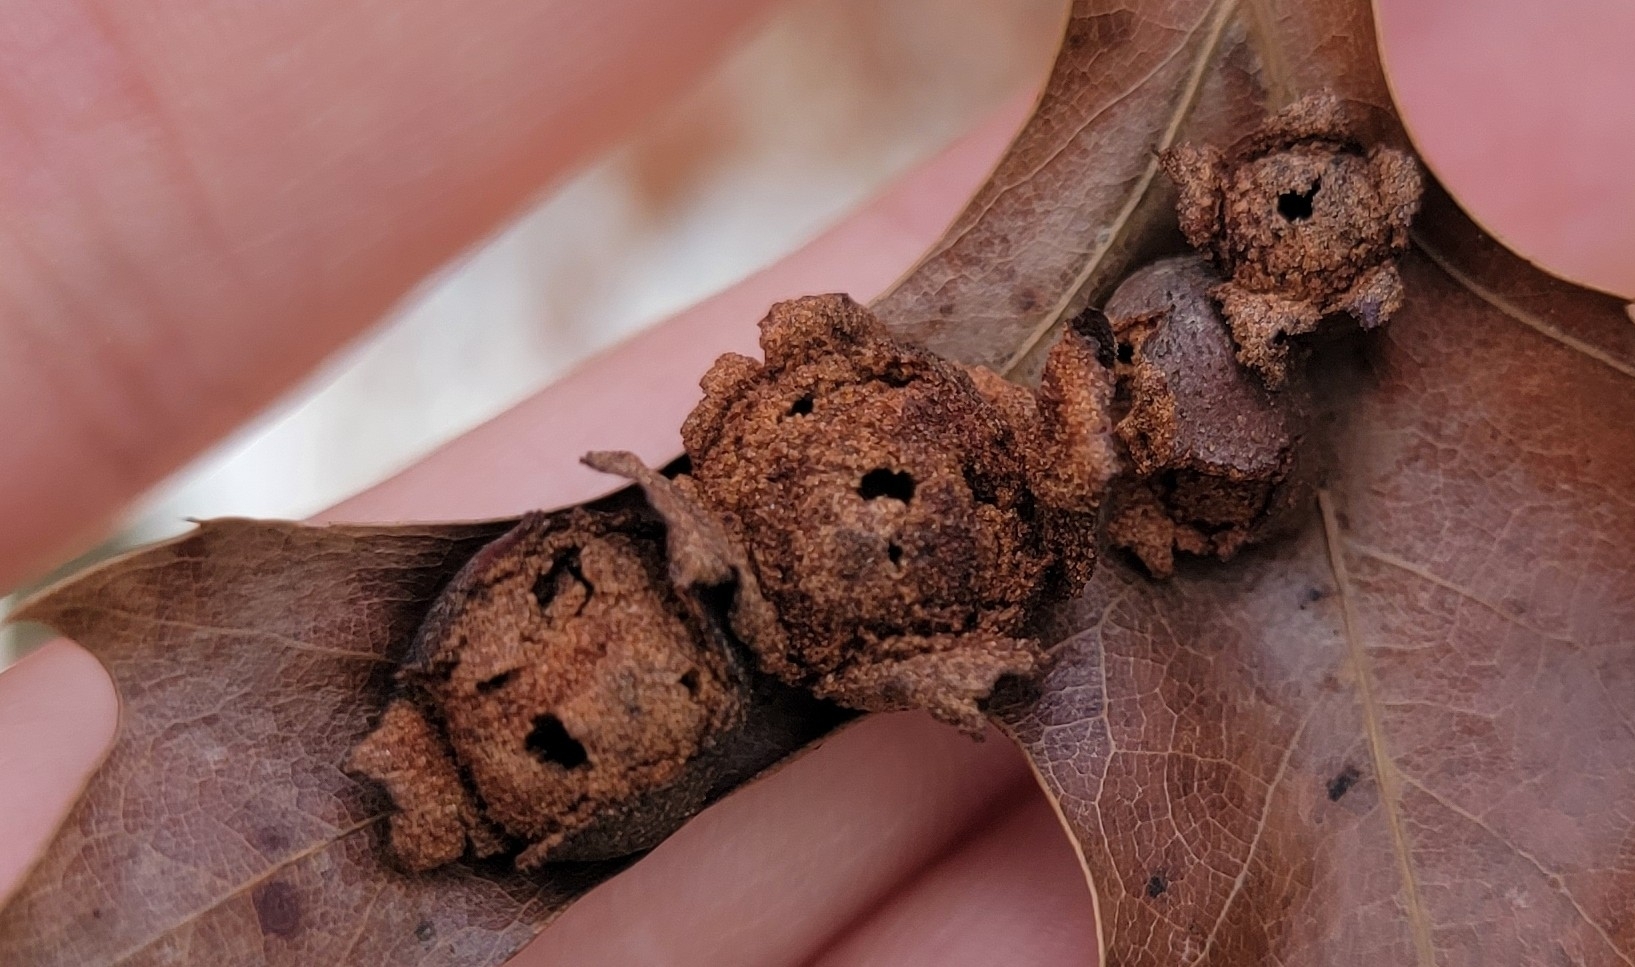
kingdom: Animalia
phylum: Arthropoda
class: Insecta
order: Diptera
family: Cecidomyiidae
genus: Polystepha
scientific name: Polystepha pilulae
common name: Oak leaf gall midge
